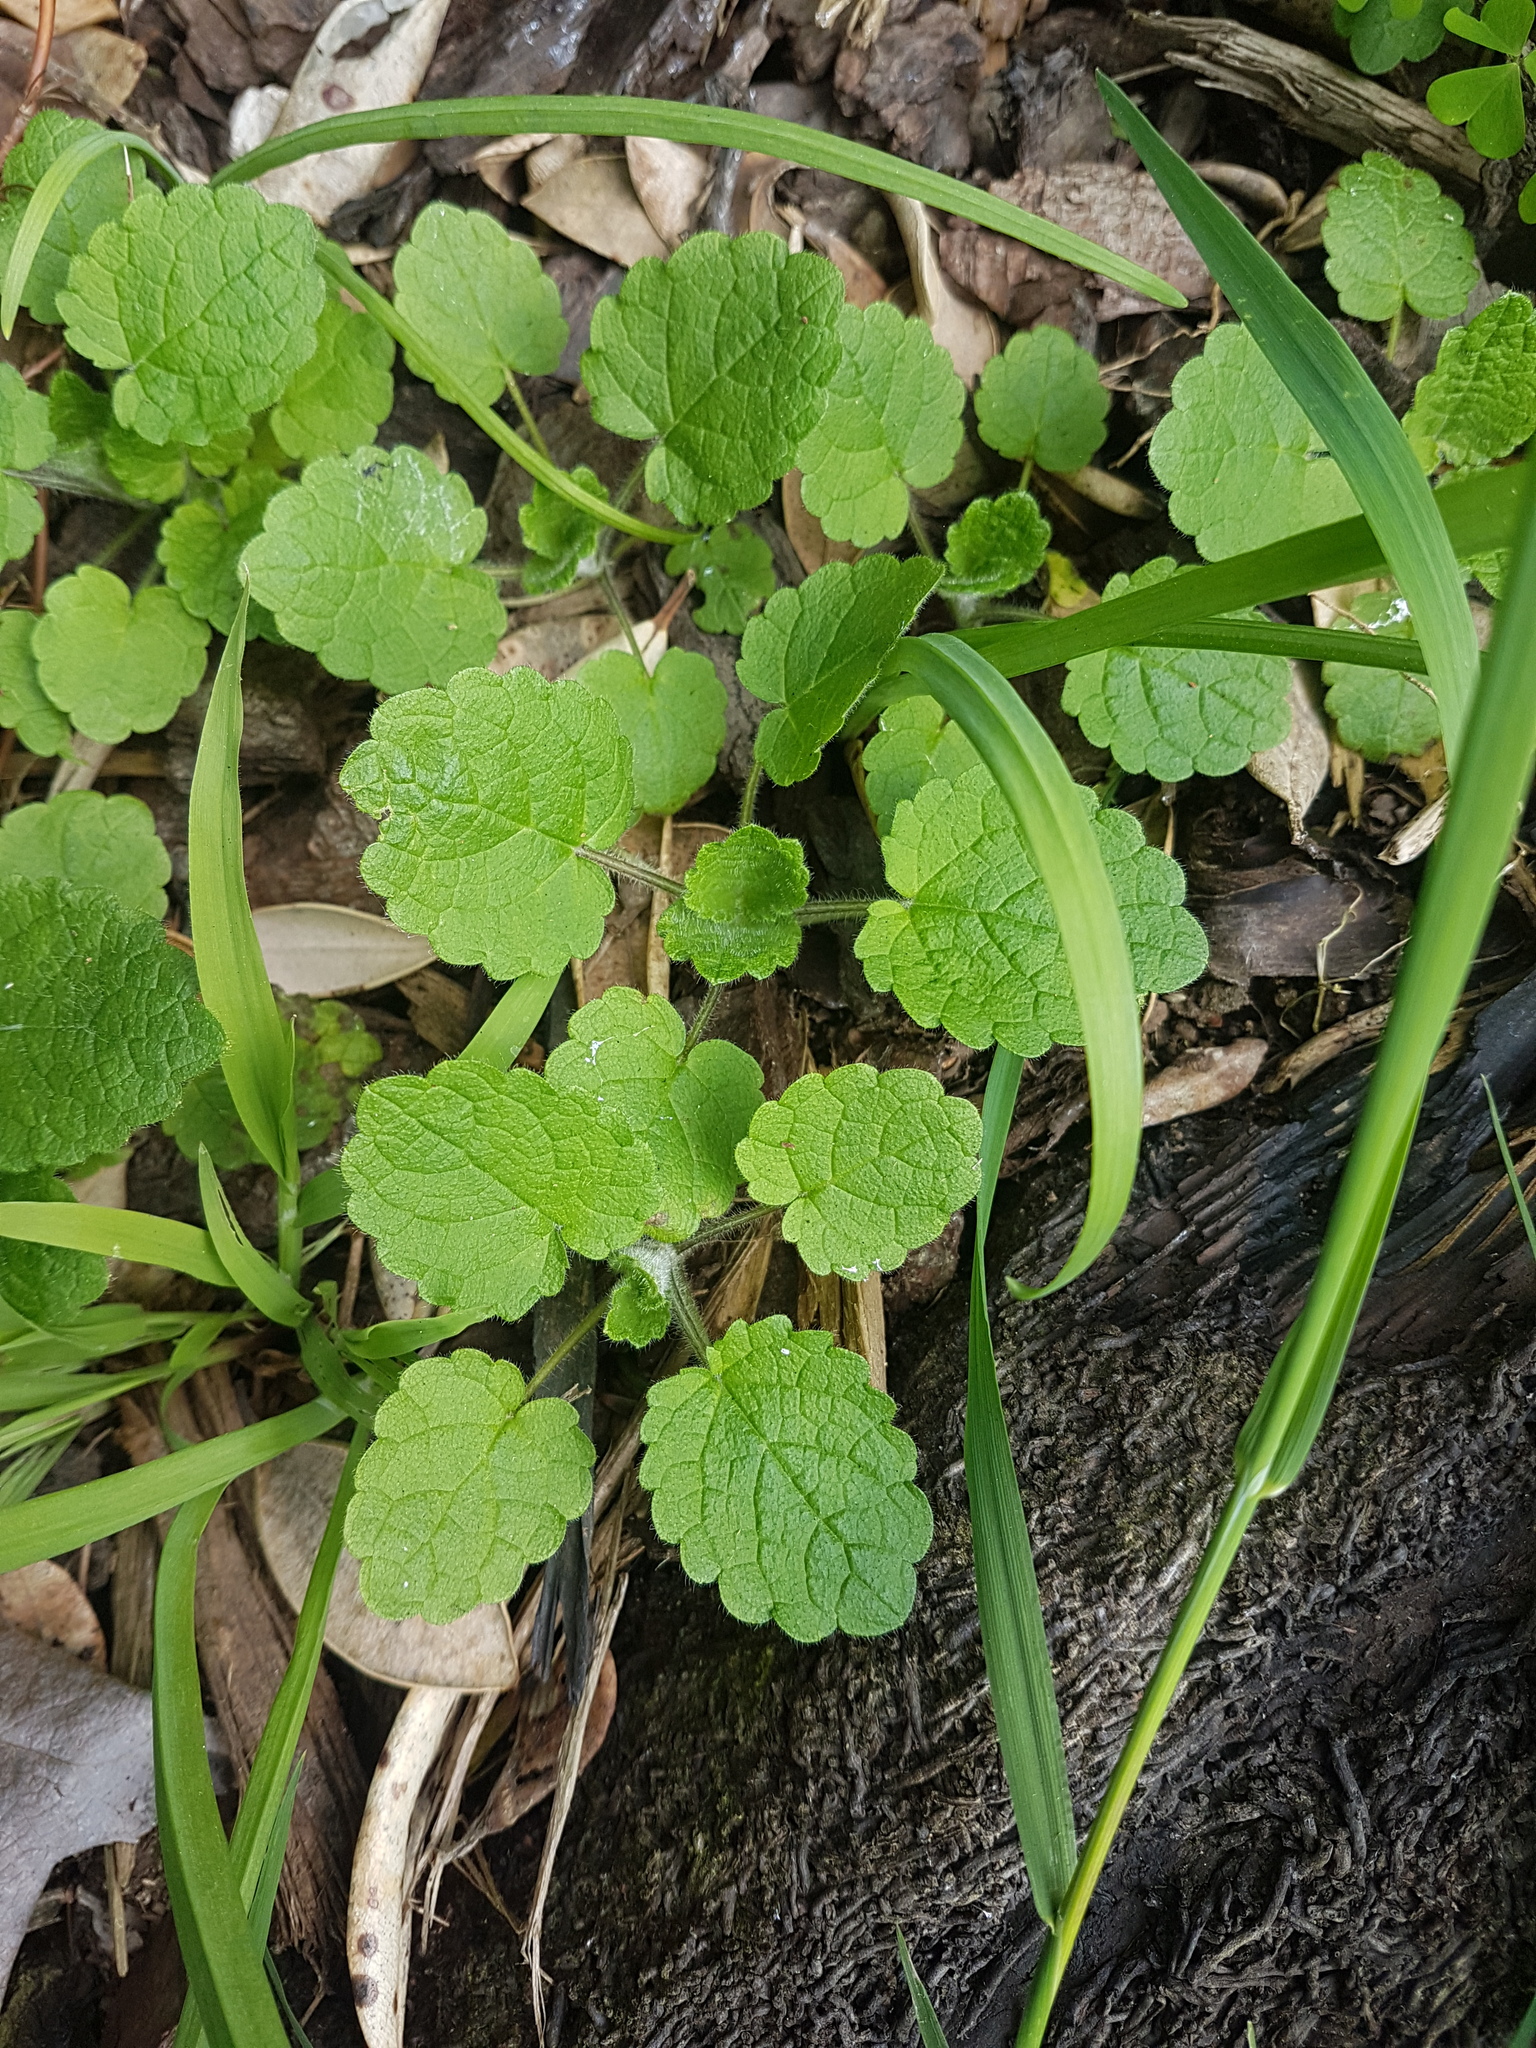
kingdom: Plantae
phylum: Tracheophyta
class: Magnoliopsida
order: Lamiales
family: Lamiaceae
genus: Lamium
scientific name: Lamium purpureum
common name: Red dead-nettle
